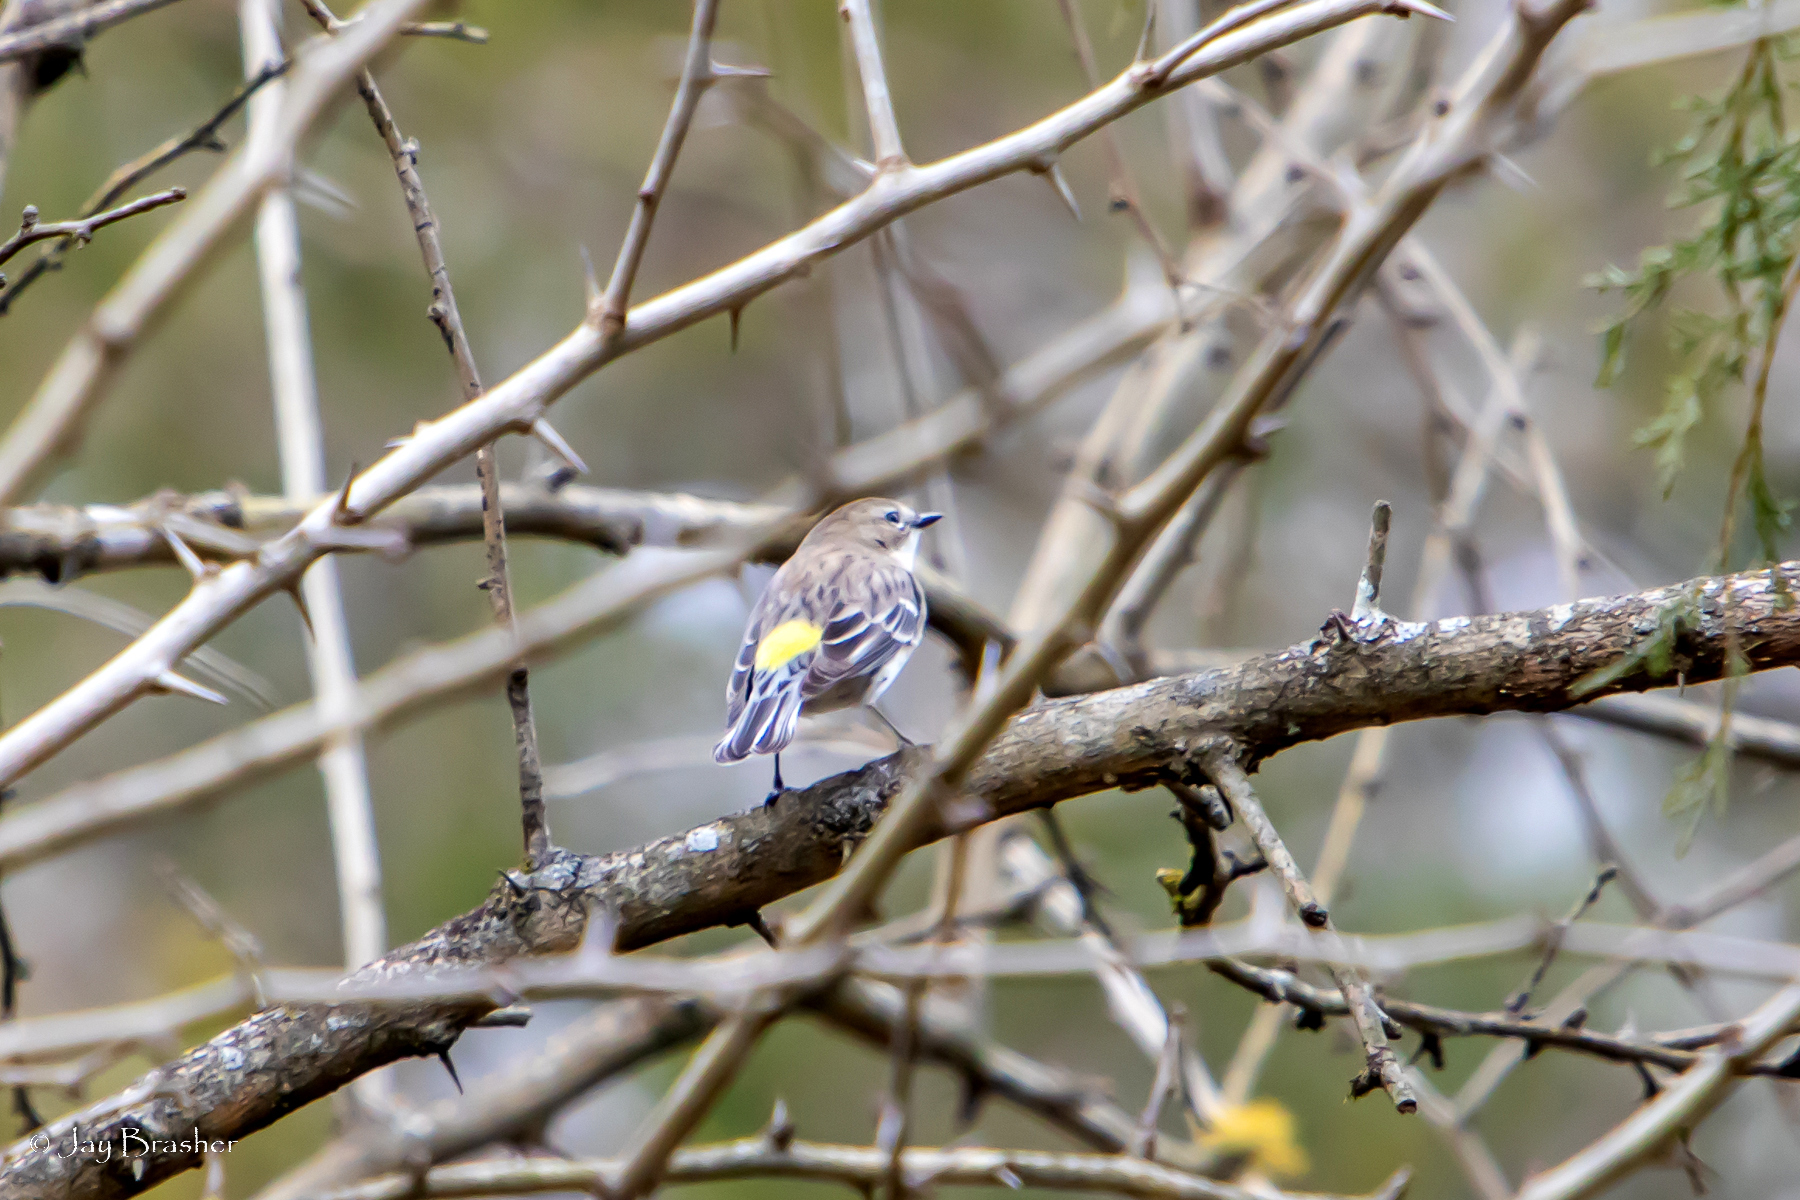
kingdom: Animalia
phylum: Chordata
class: Aves
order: Passeriformes
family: Parulidae
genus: Setophaga
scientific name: Setophaga coronata
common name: Myrtle warbler
